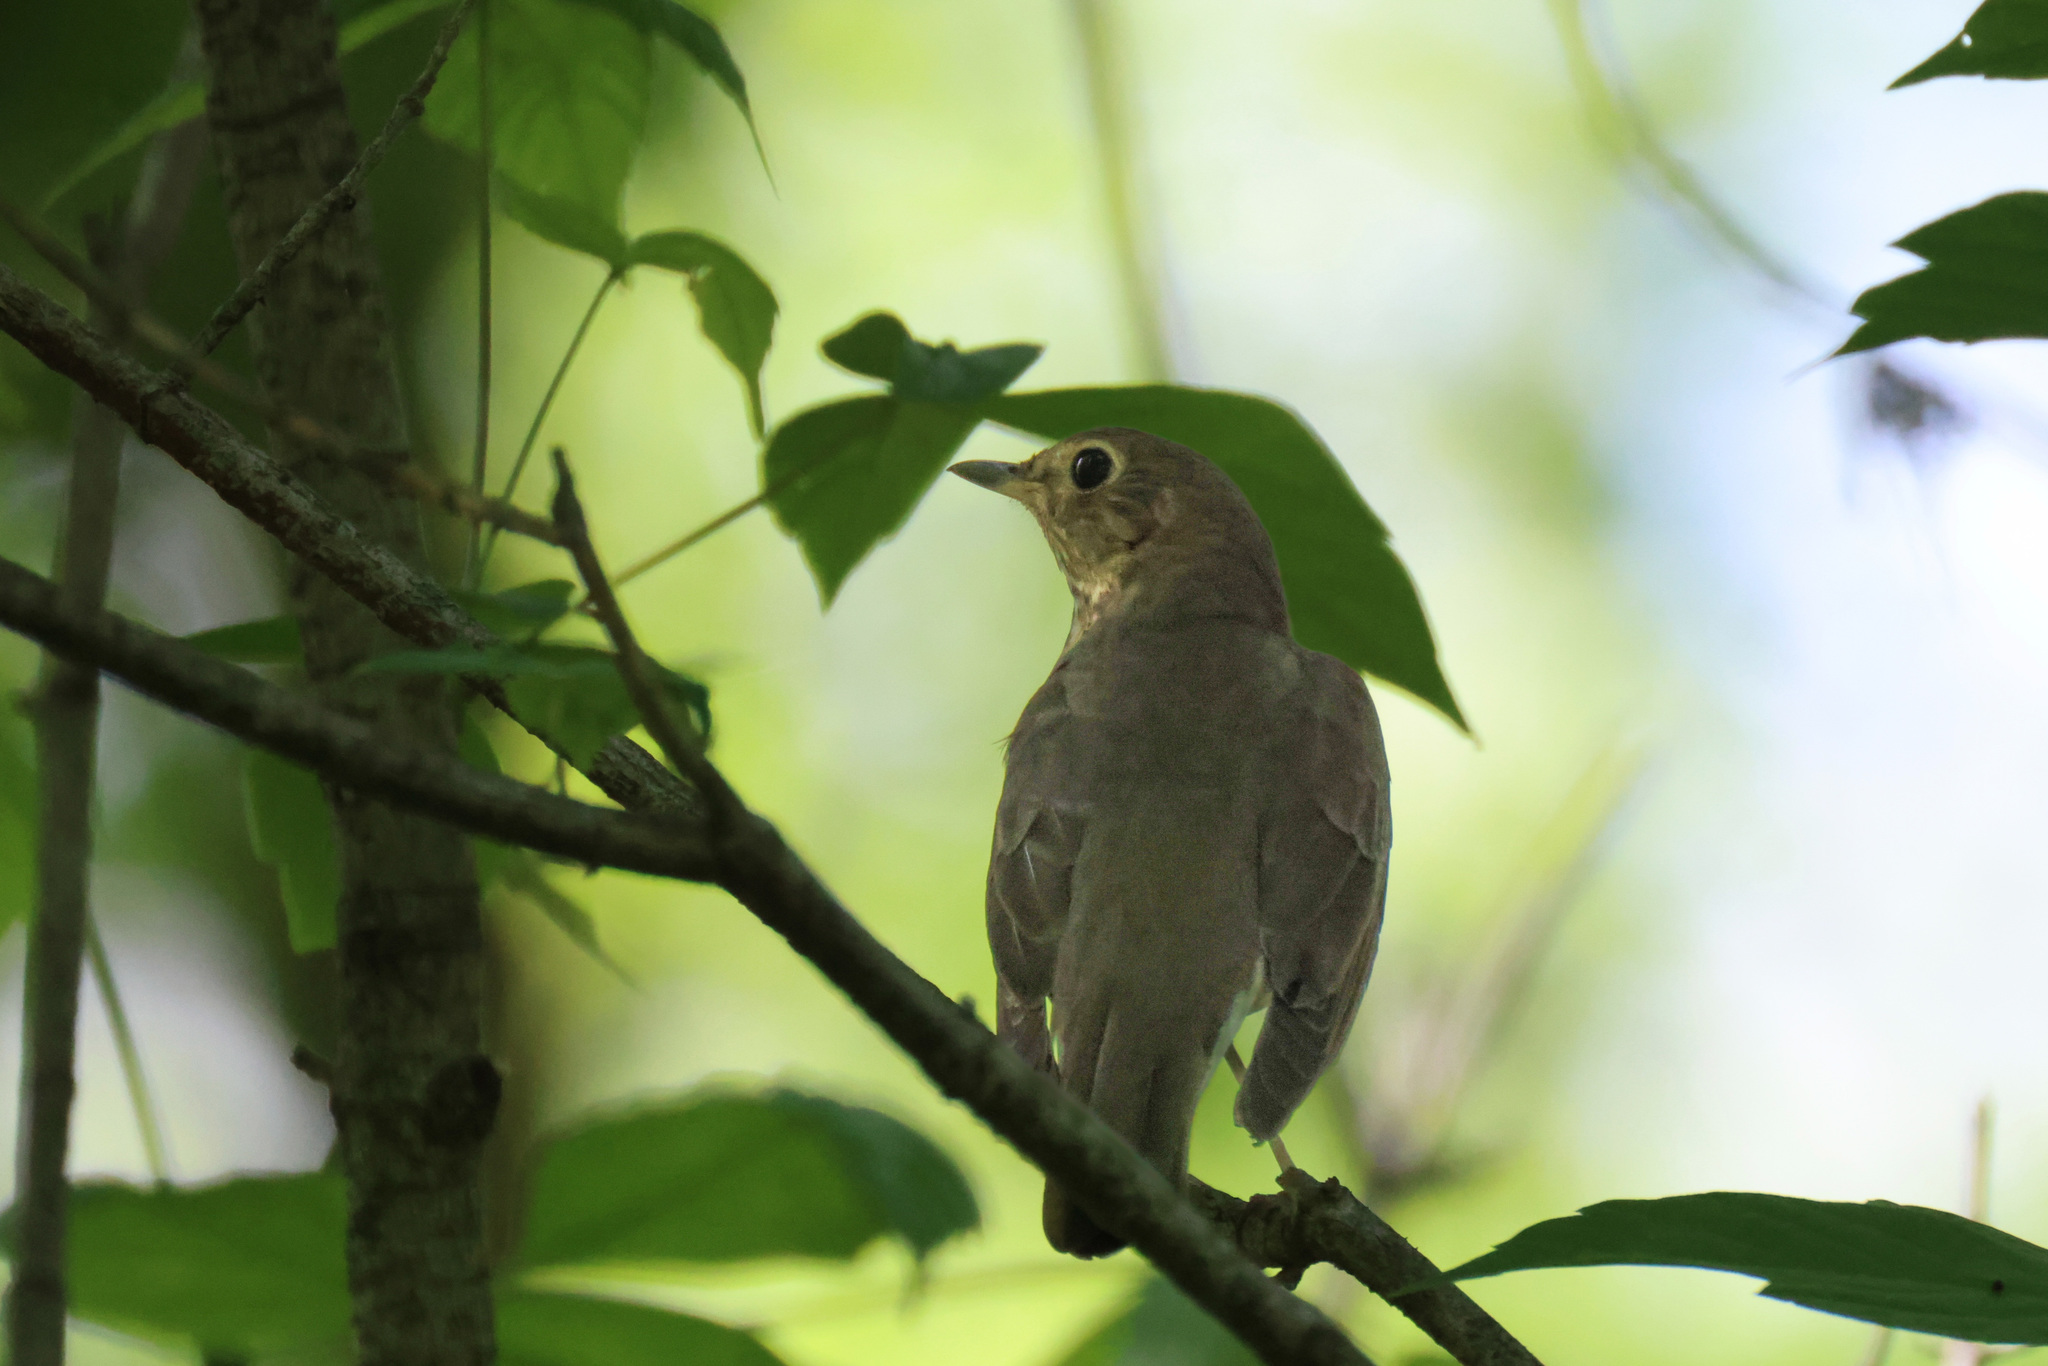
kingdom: Animalia
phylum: Chordata
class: Aves
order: Passeriformes
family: Turdidae
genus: Catharus
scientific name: Catharus ustulatus
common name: Swainson's thrush
